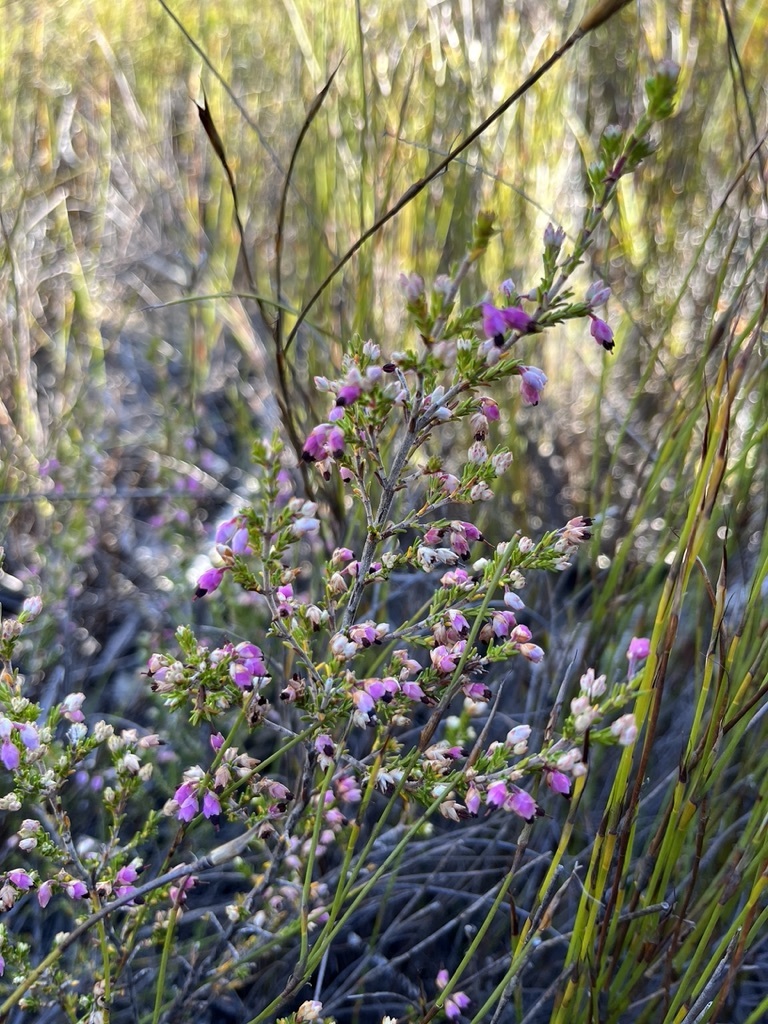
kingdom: Plantae
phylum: Tracheophyta
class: Magnoliopsida
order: Ericales
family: Ericaceae
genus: Erica
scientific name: Erica placentiflora
